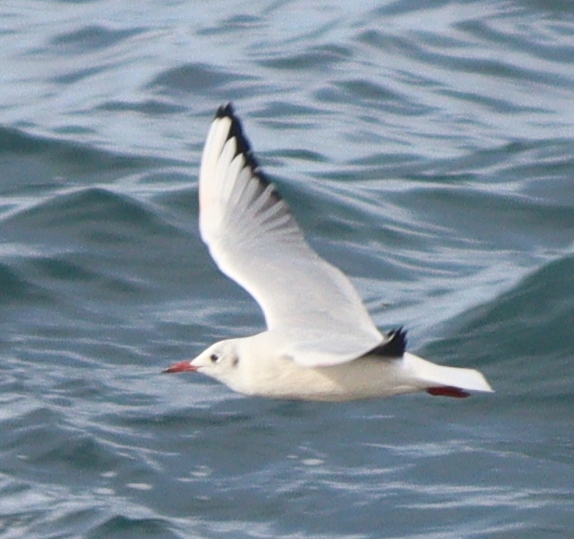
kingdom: Animalia
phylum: Chordata
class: Aves
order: Charadriiformes
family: Laridae
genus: Chroicocephalus
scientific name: Chroicocephalus ridibundus
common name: Black-headed gull
